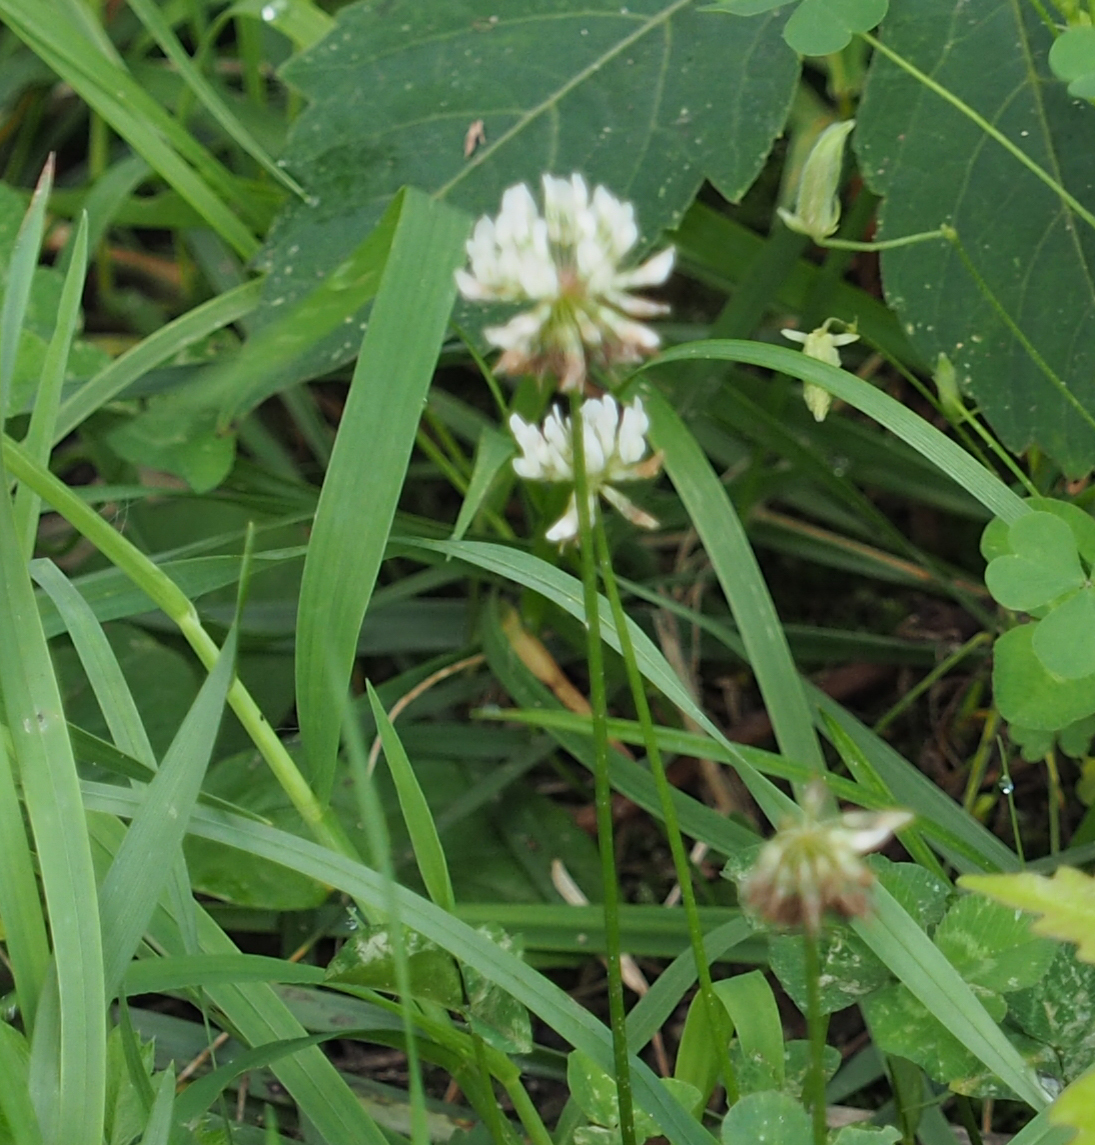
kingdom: Plantae
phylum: Tracheophyta
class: Magnoliopsida
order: Fabales
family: Fabaceae
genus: Trifolium
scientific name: Trifolium repens
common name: White clover
